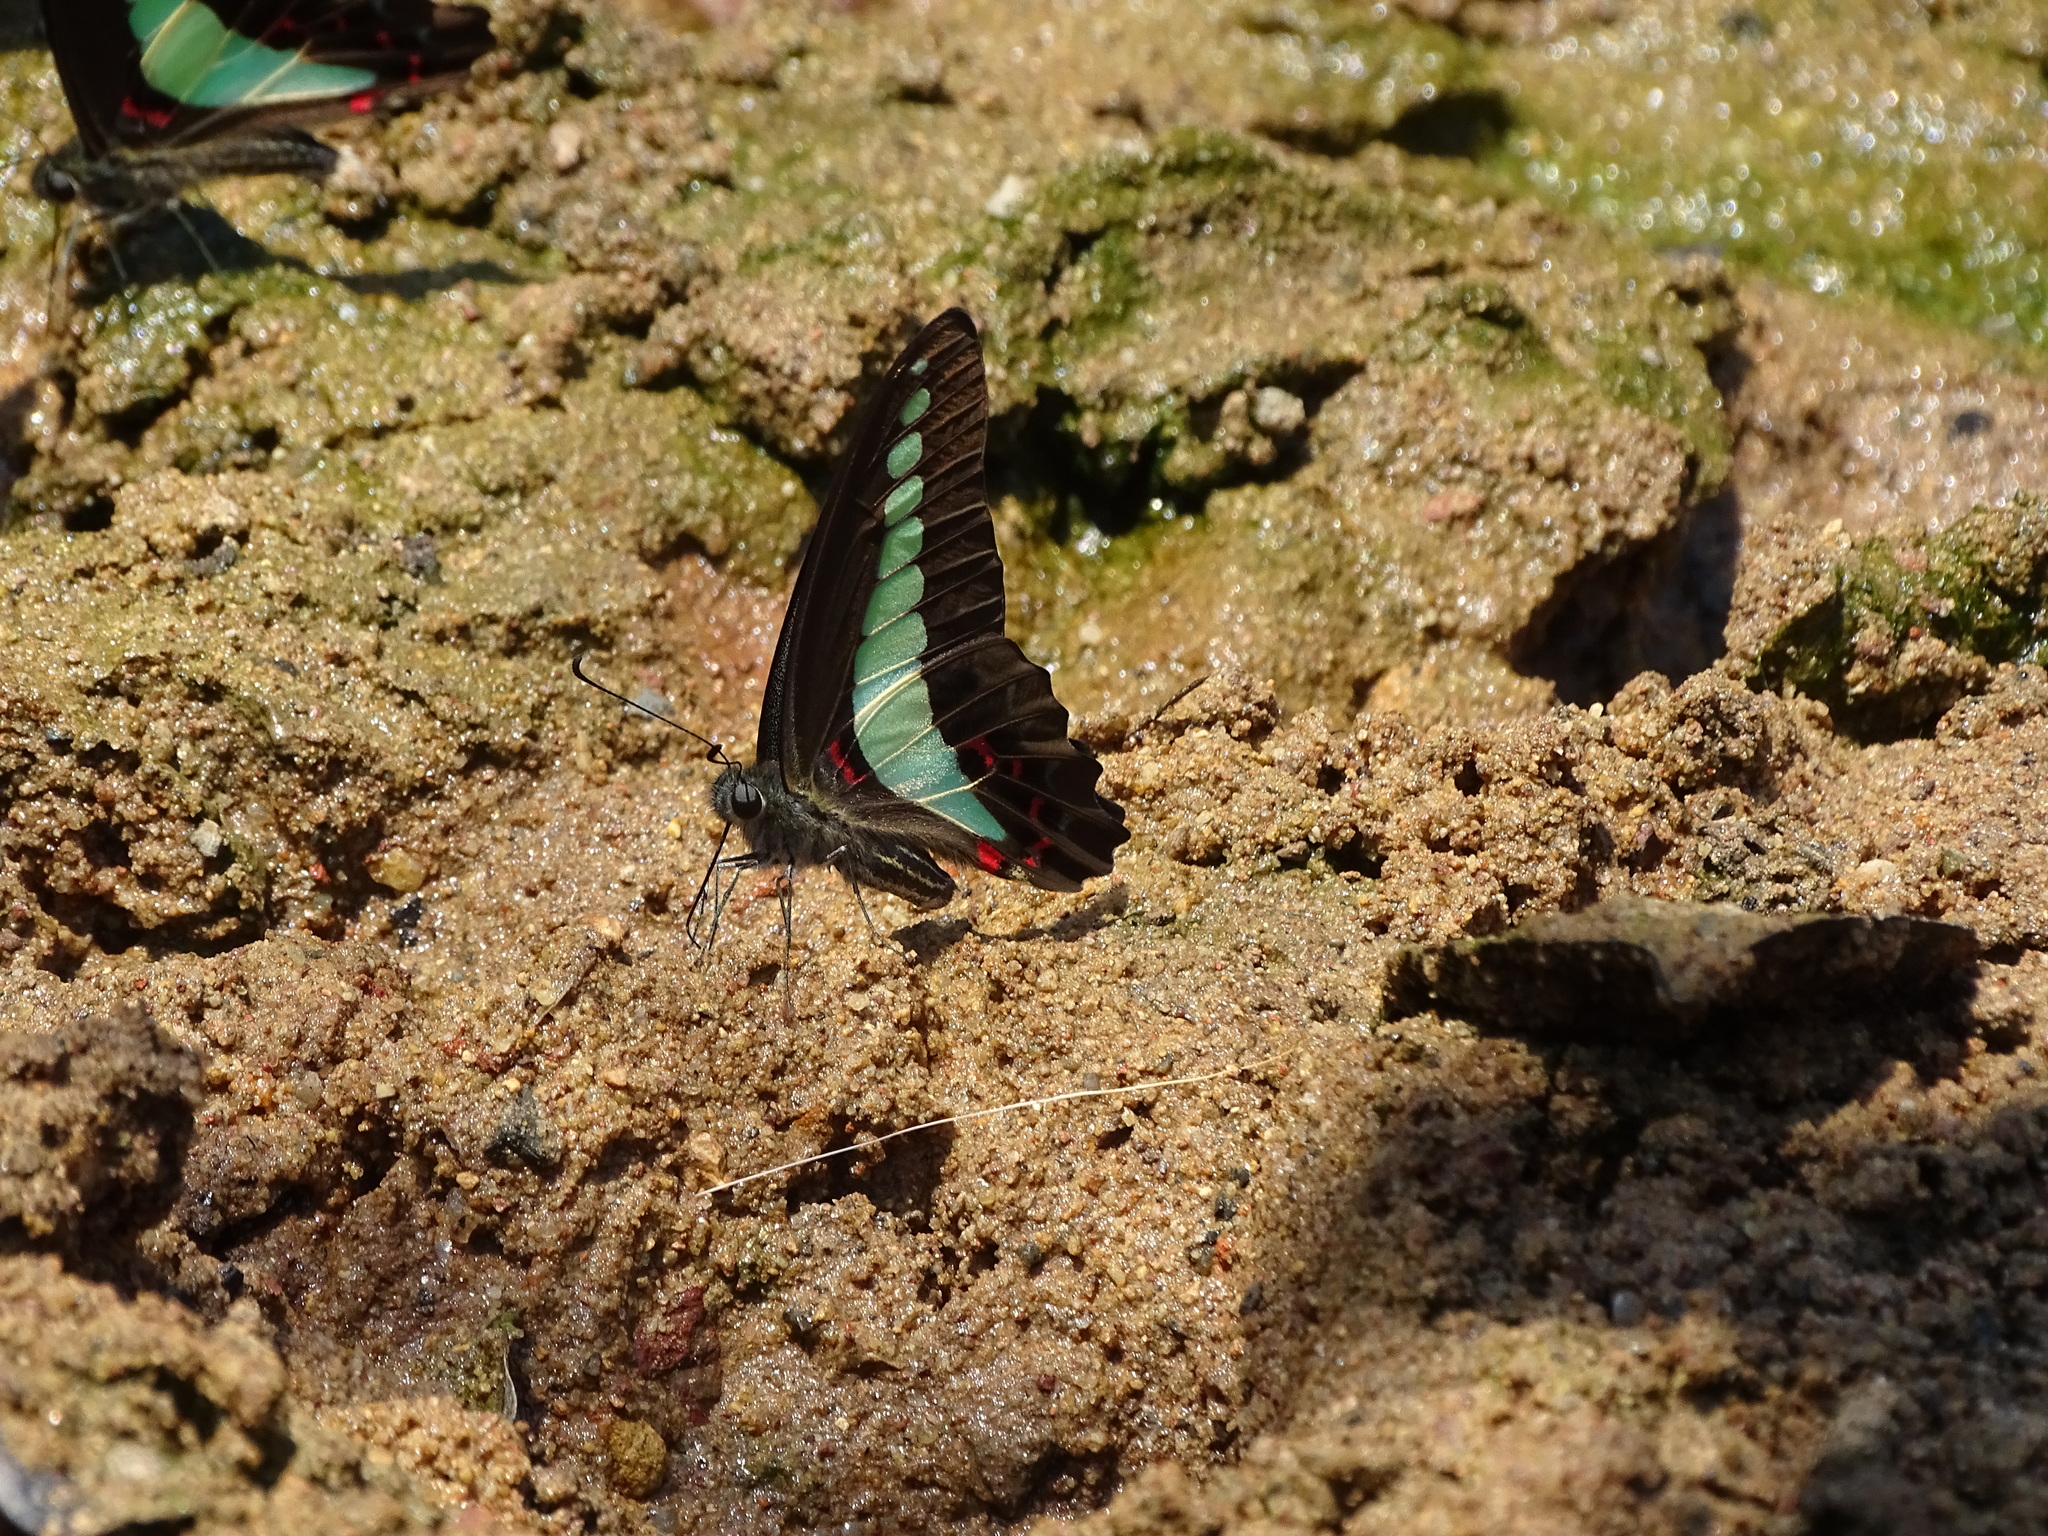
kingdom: Fungi
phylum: Ascomycota
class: Sordariomycetes
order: Microascales
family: Microascaceae
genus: Graphium
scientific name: Graphium sarpedon
